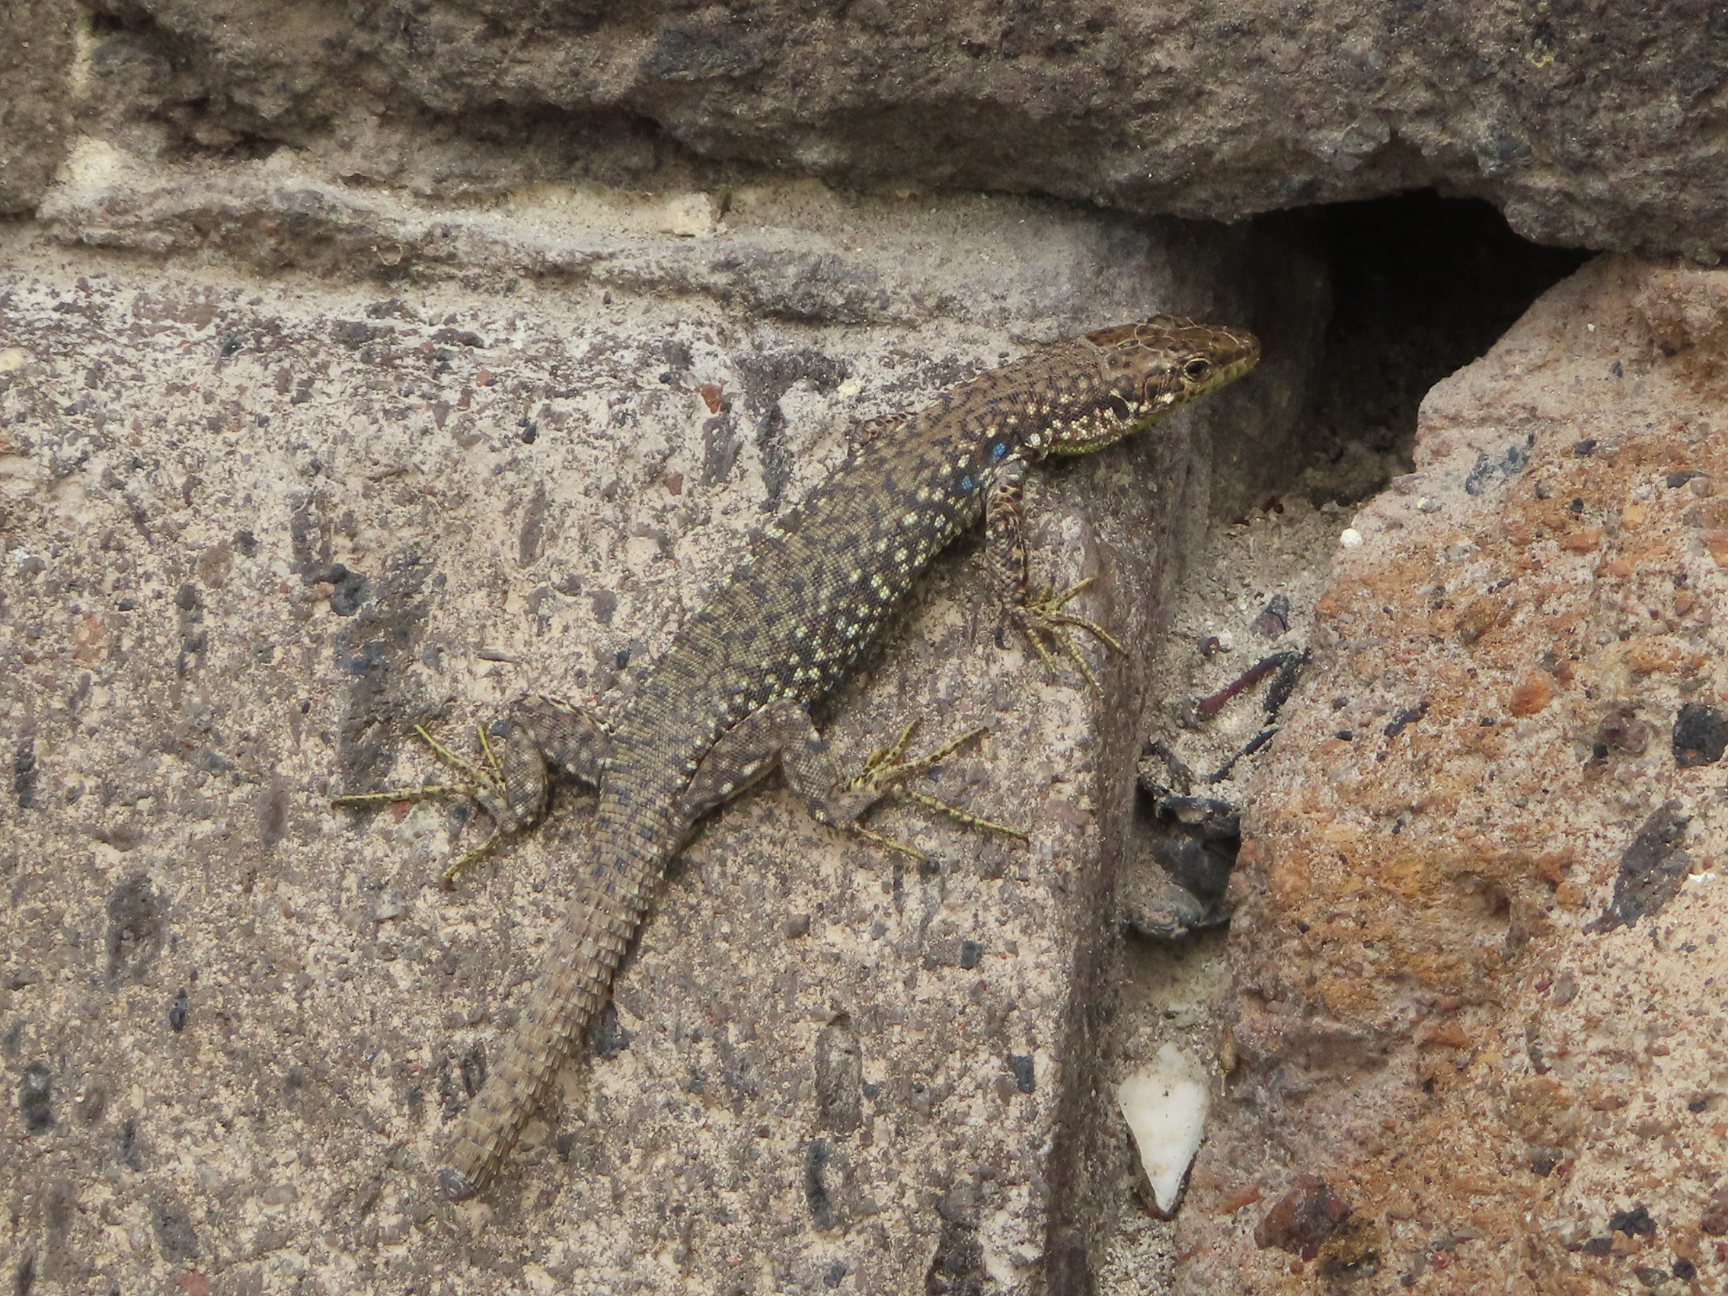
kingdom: Animalia
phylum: Chordata
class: Squamata
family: Lacertidae
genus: Darevskia
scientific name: Darevskia
